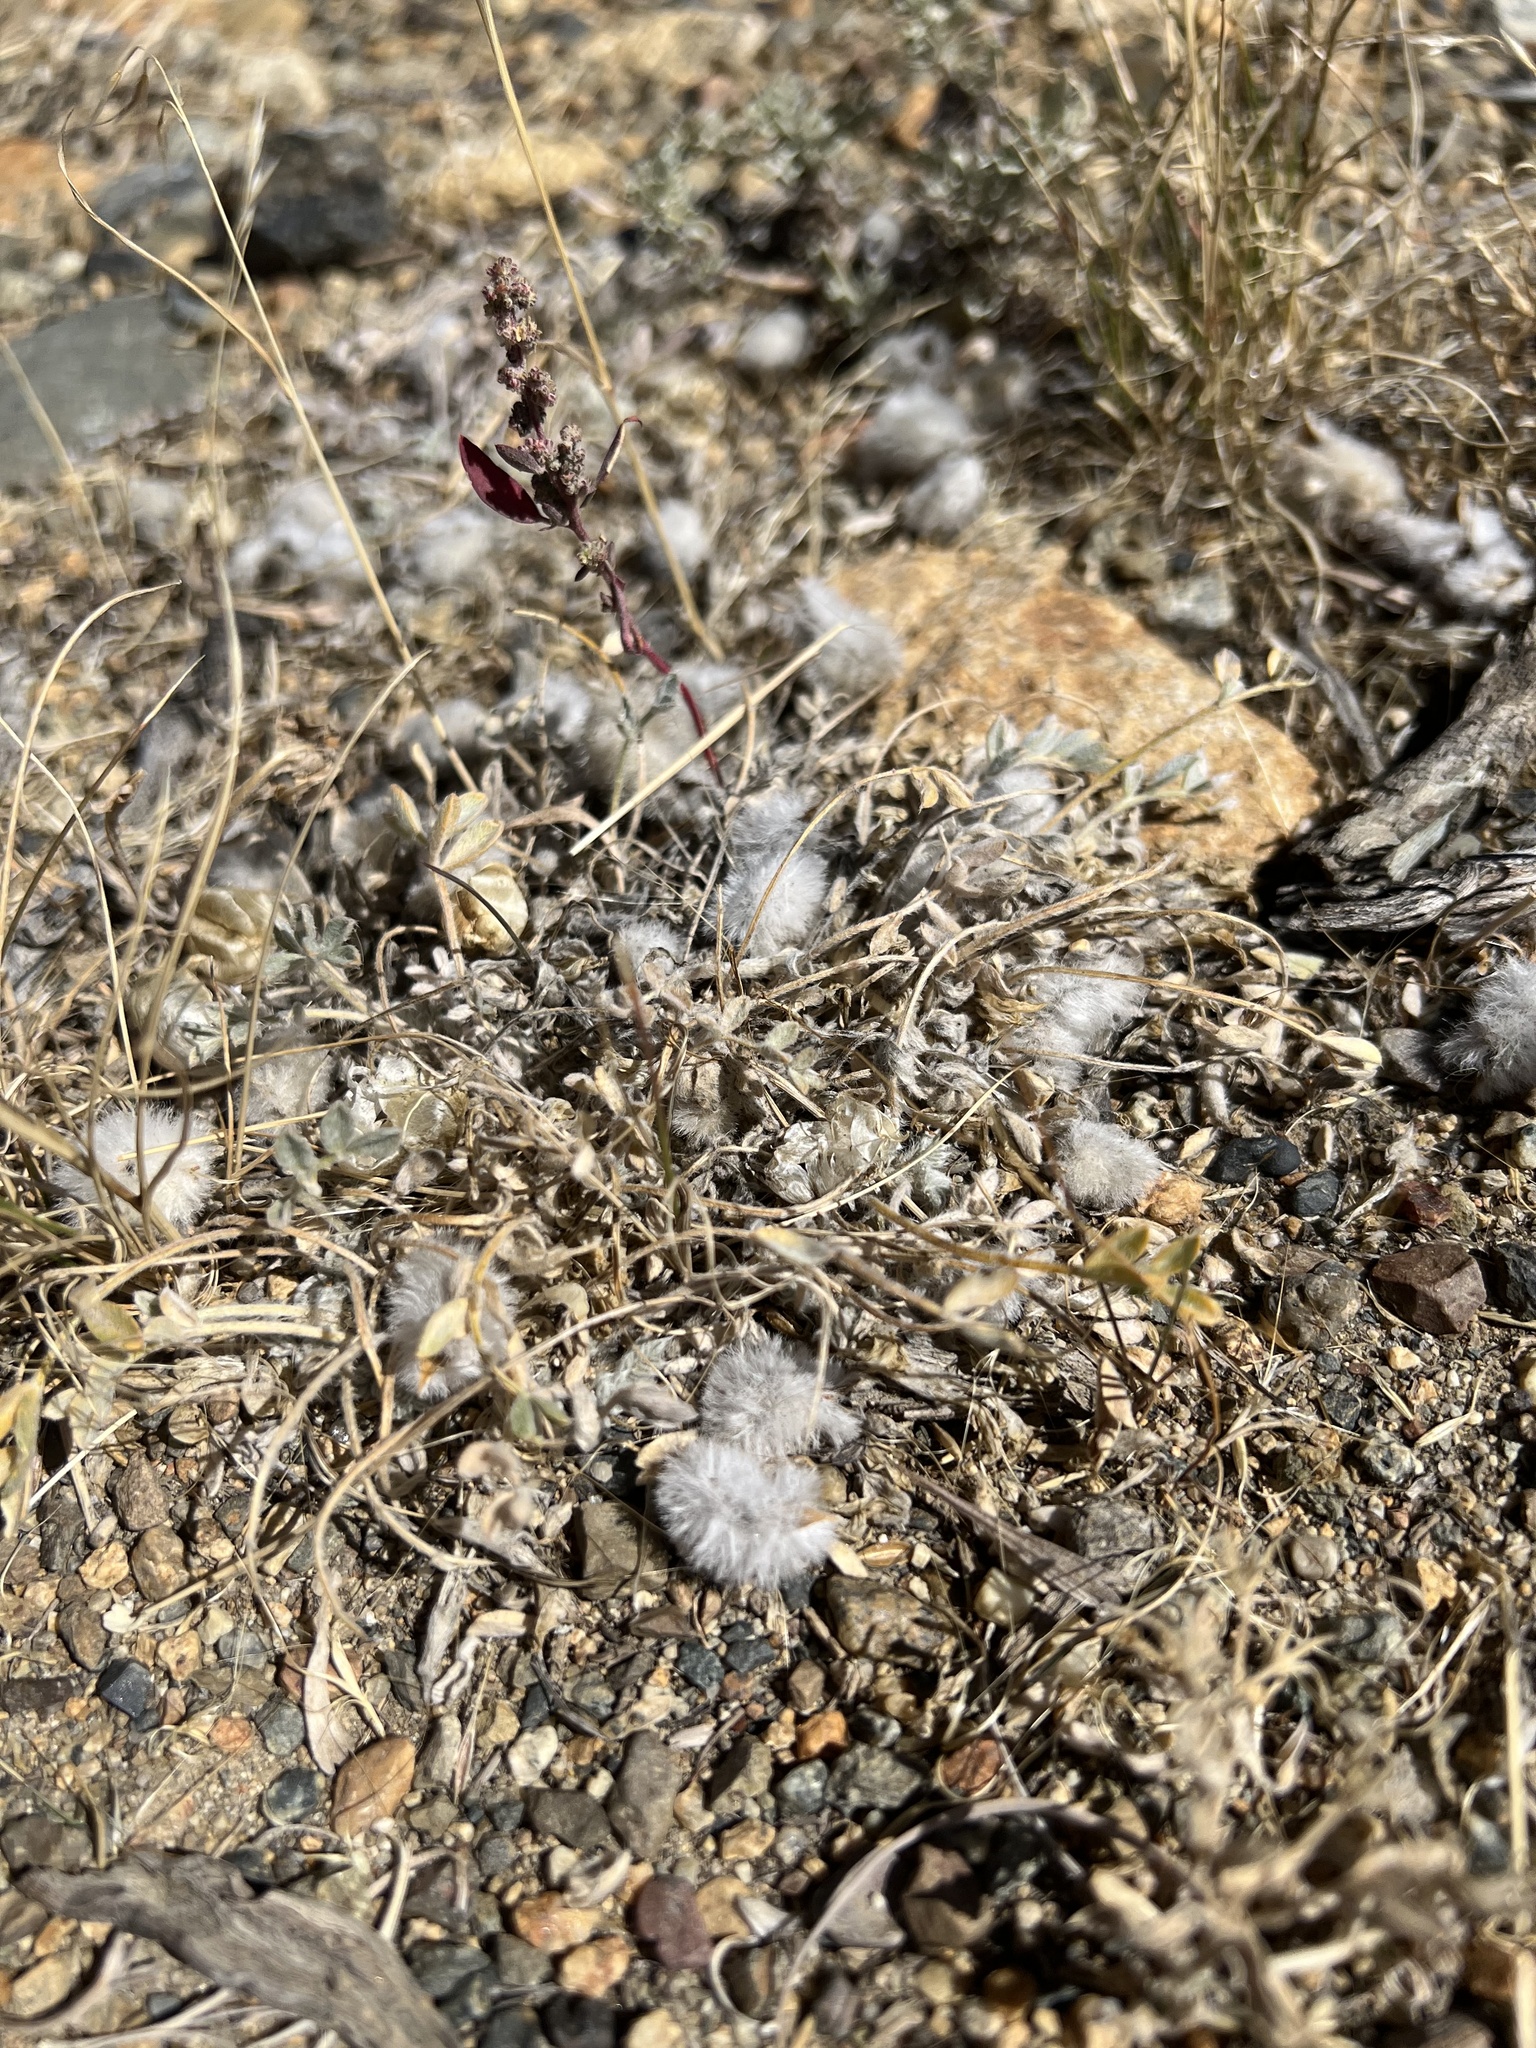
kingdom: Plantae
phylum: Tracheophyta
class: Magnoliopsida
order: Fabales
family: Fabaceae
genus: Astragalus
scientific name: Astragalus purshii
